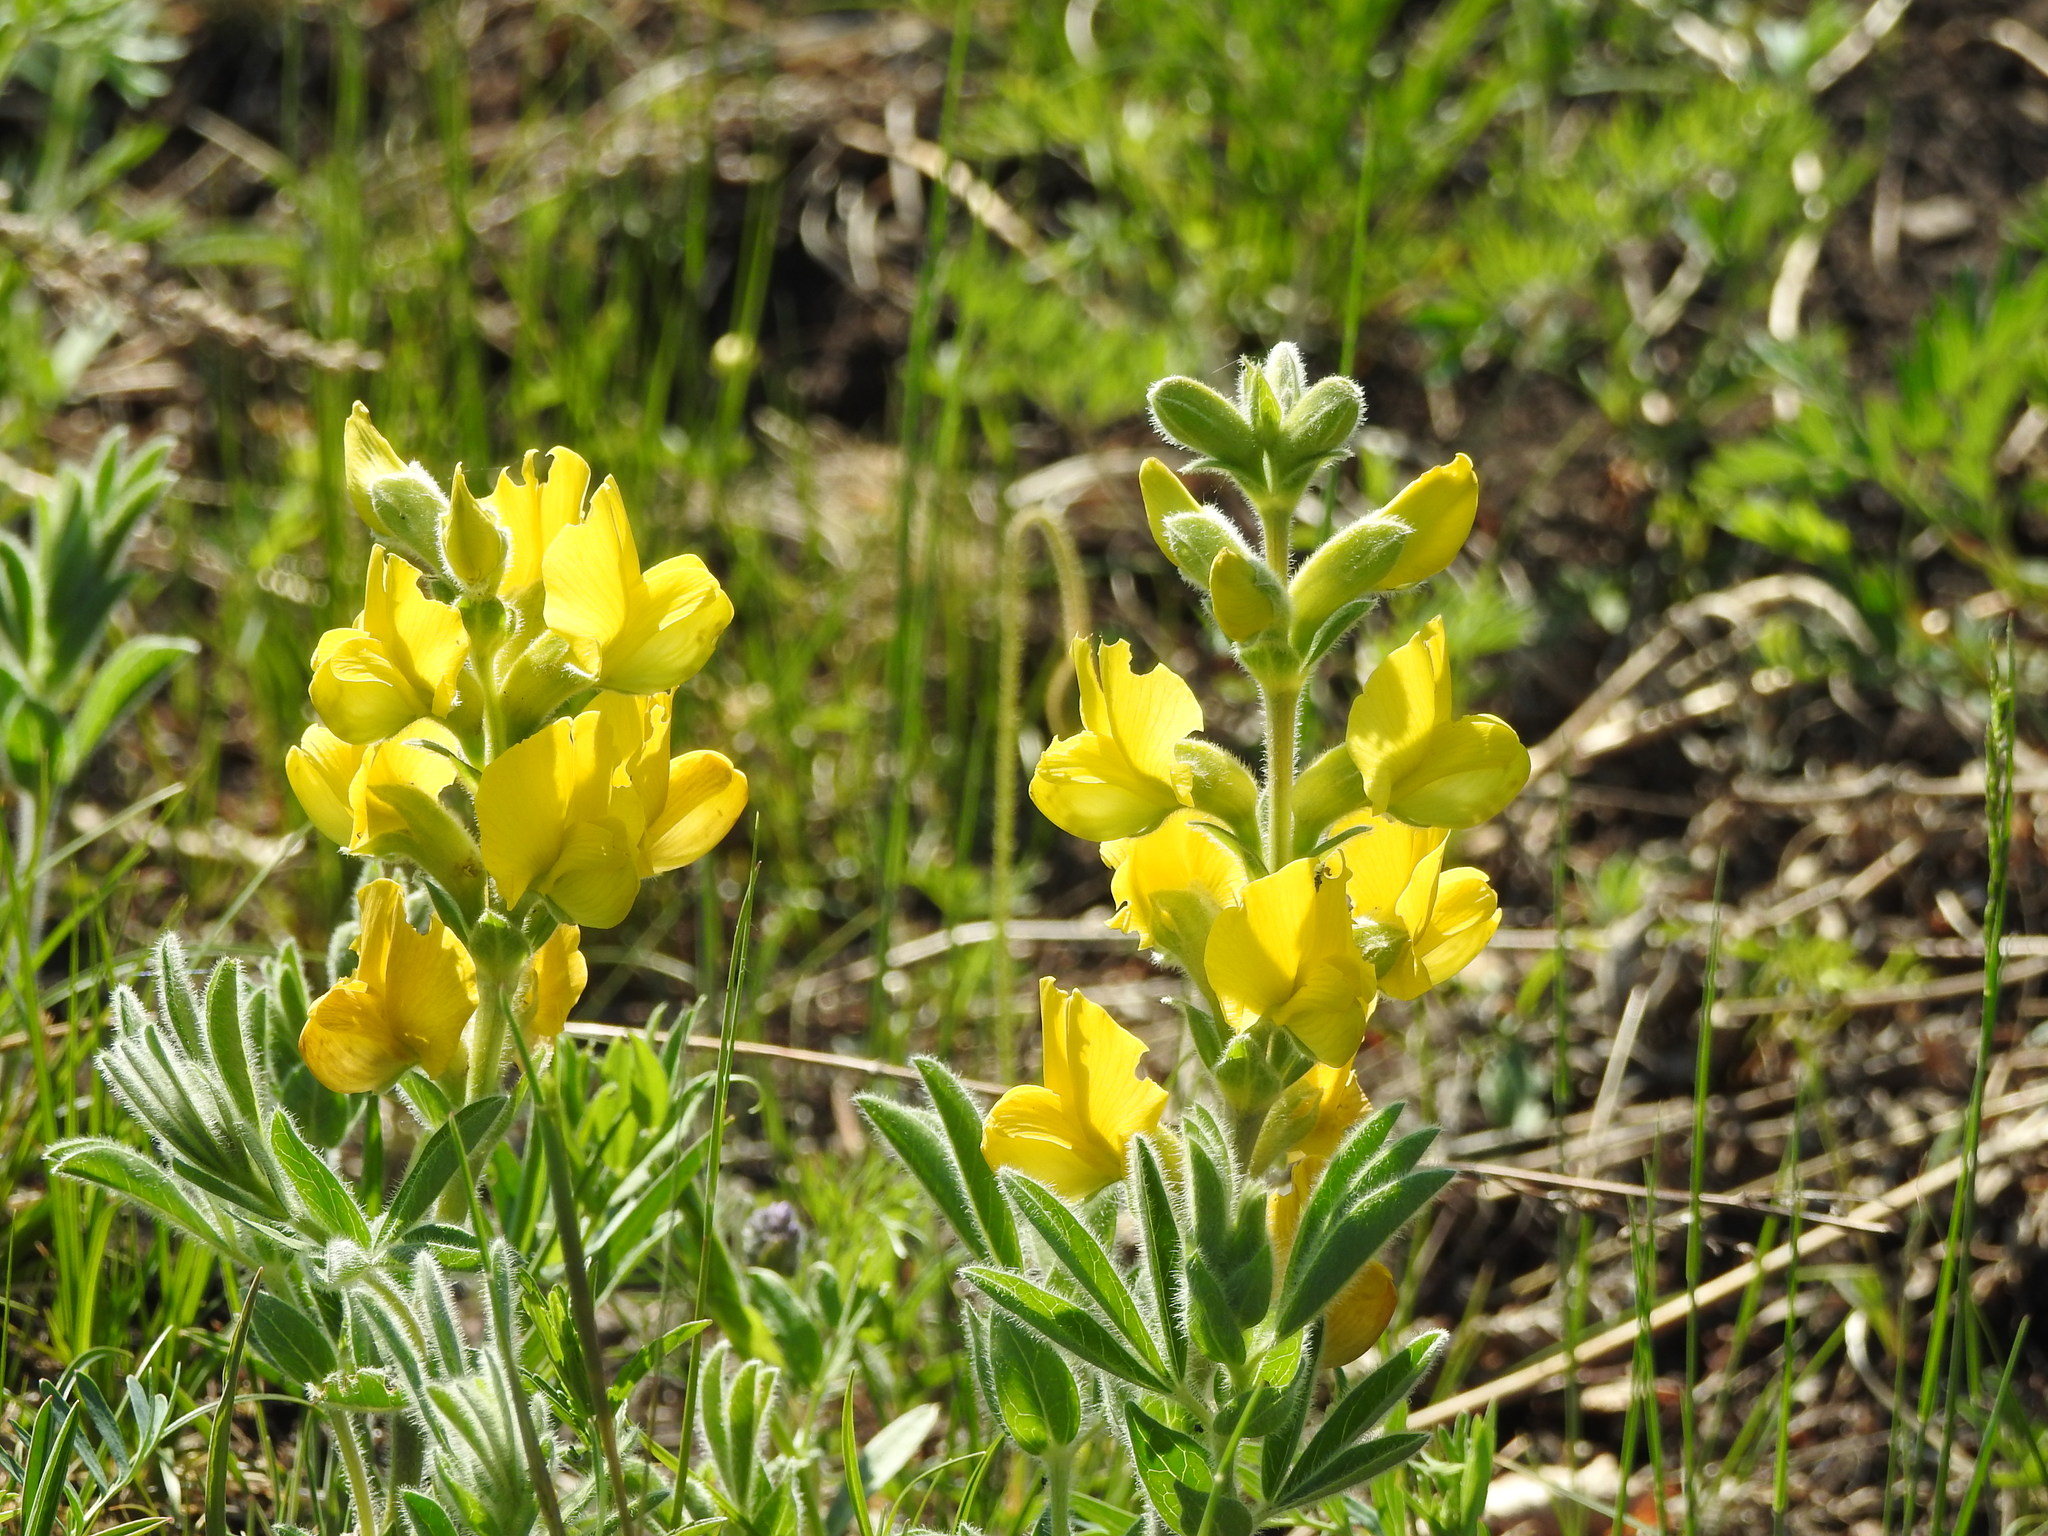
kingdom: Plantae
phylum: Tracheophyta
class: Magnoliopsida
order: Fabales
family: Fabaceae
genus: Thermopsis
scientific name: Thermopsis lanceolata
